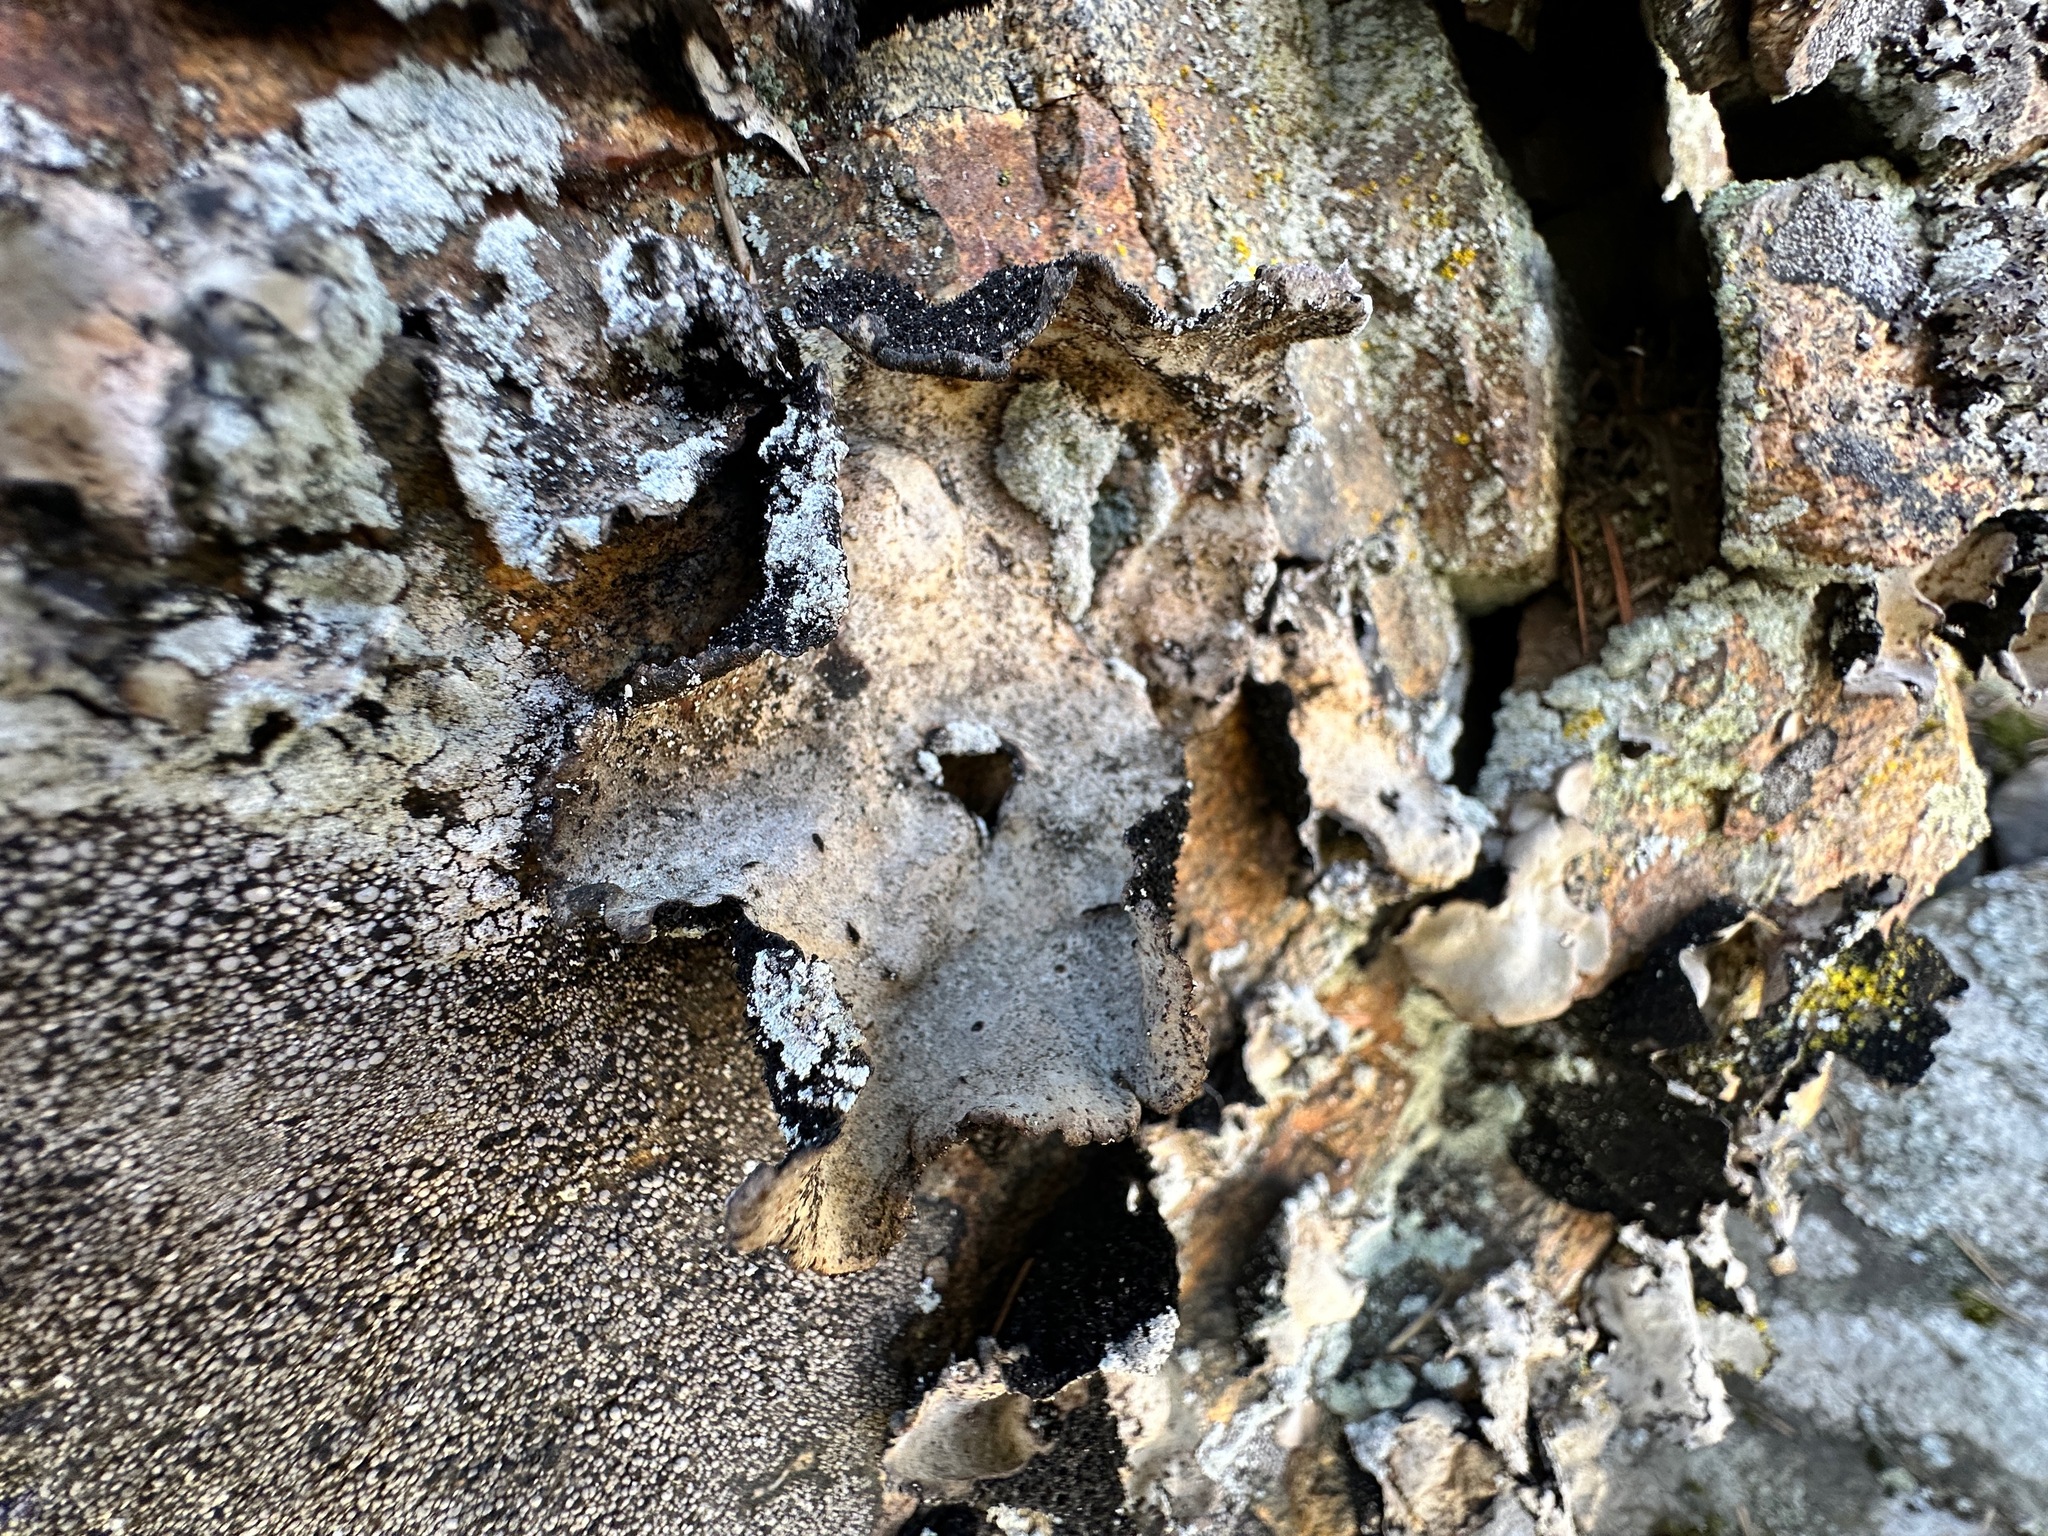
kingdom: Fungi
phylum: Ascomycota
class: Lecanoromycetes
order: Umbilicariales
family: Umbilicariaceae
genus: Umbilicaria
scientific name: Umbilicaria americana
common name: Frosted rock tripe
